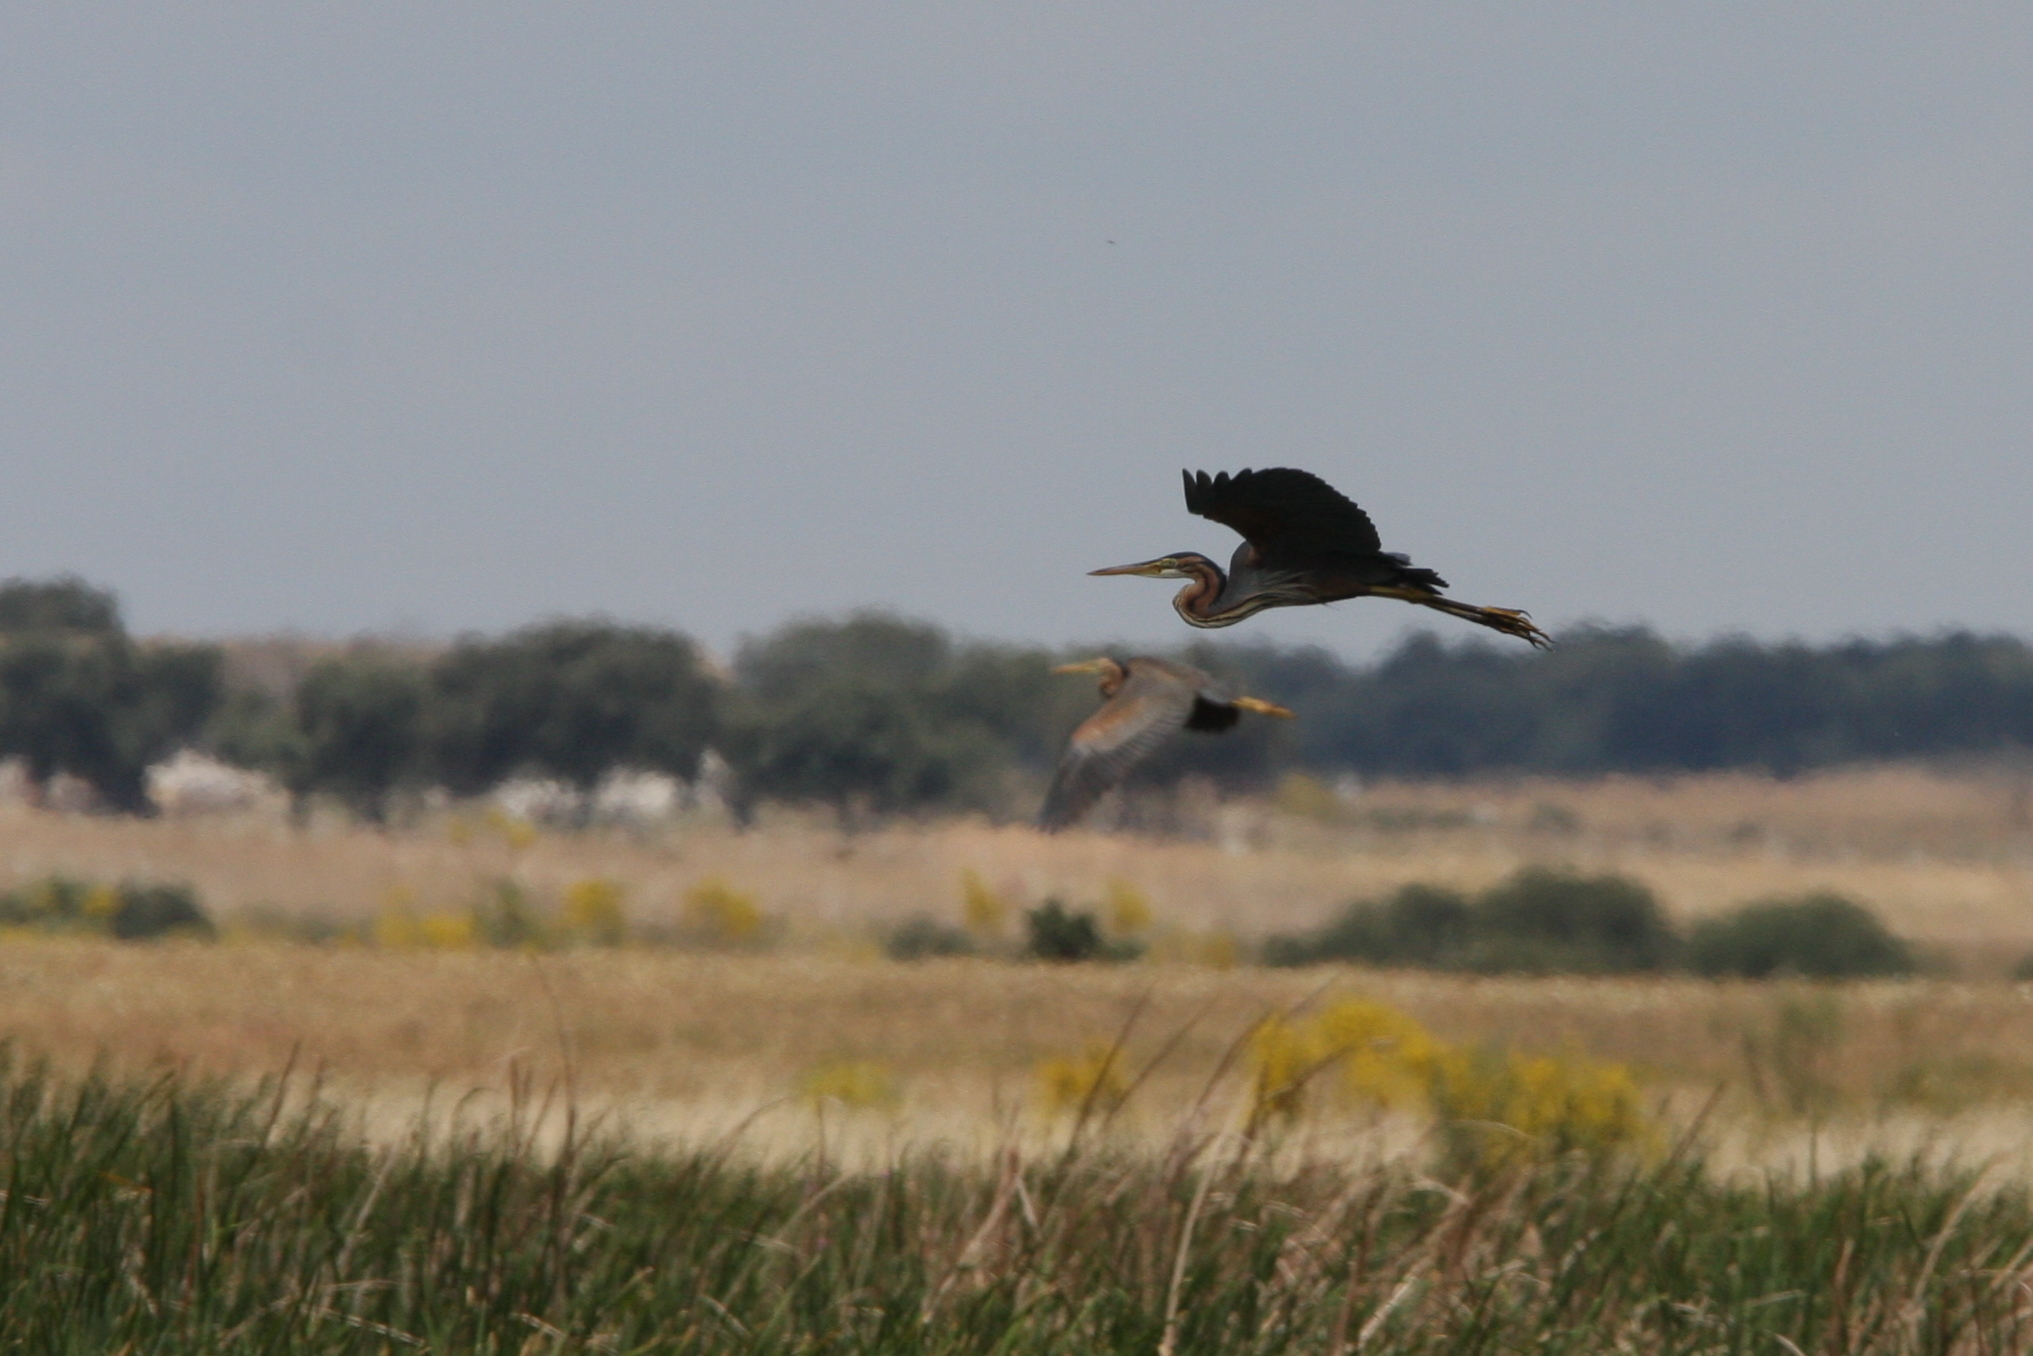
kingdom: Animalia
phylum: Chordata
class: Aves
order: Pelecaniformes
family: Ardeidae
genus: Ardea
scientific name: Ardea purpurea
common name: Purple heron
